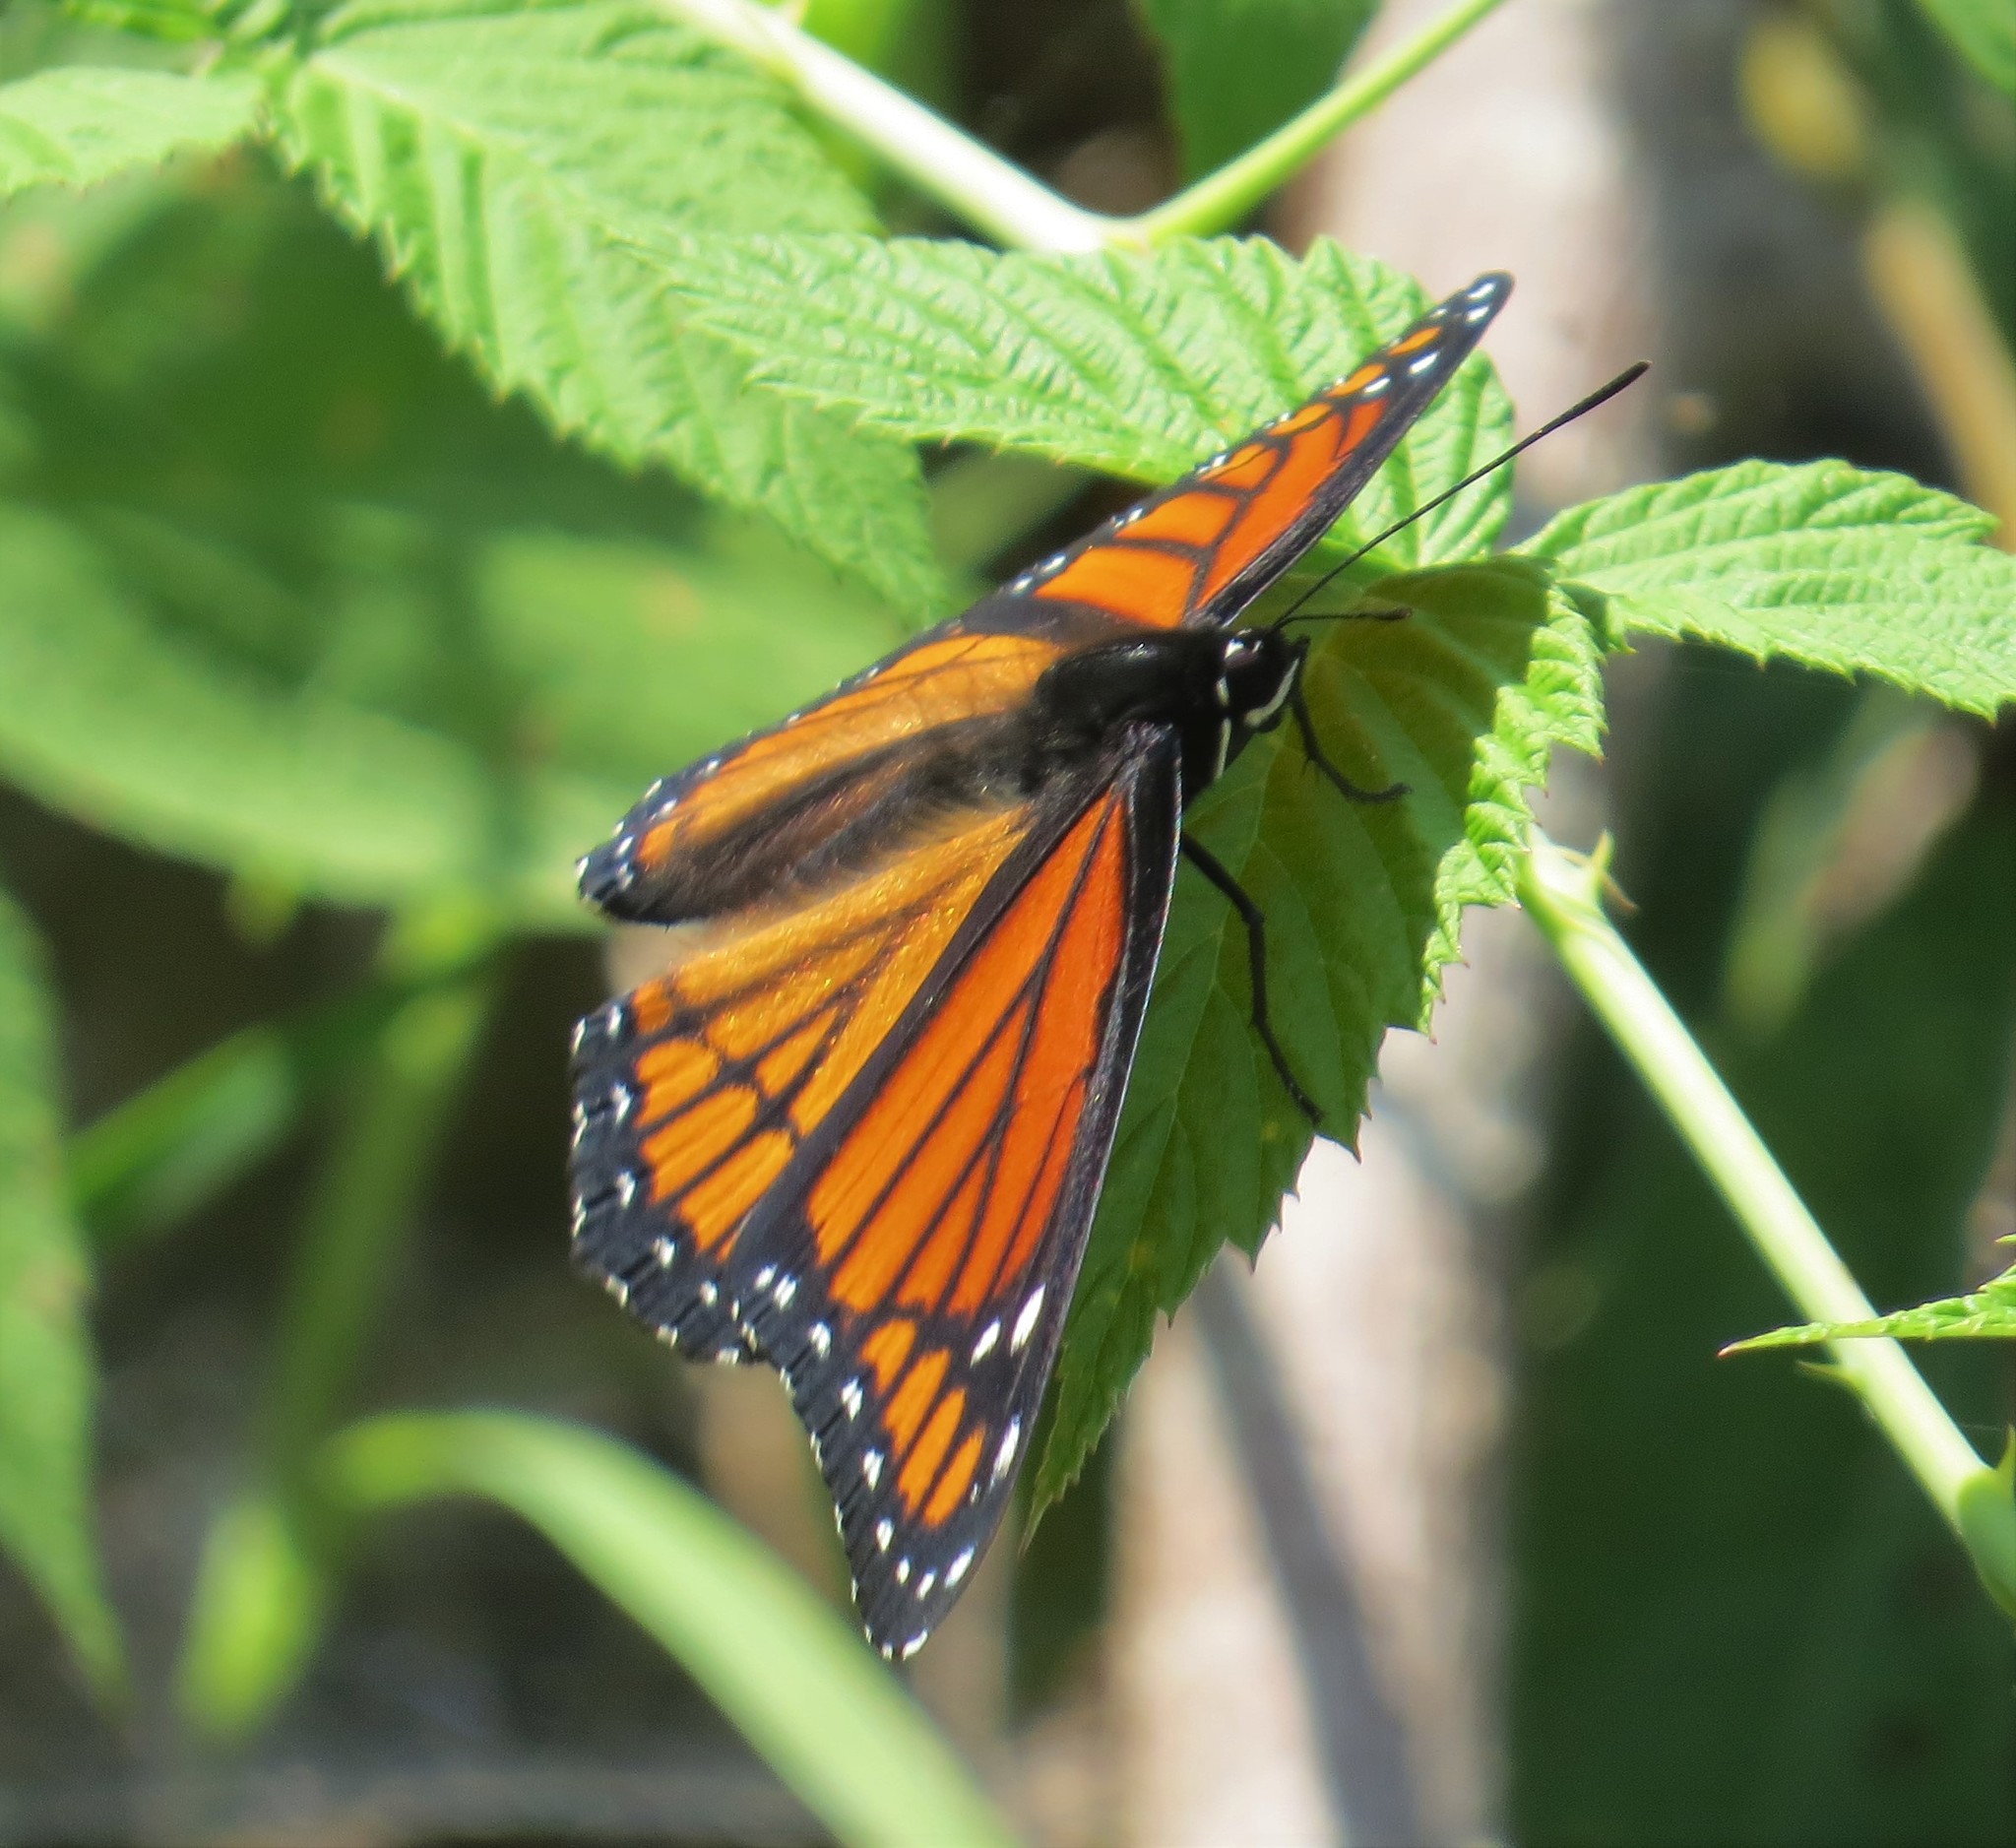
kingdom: Animalia
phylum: Arthropoda
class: Insecta
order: Lepidoptera
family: Nymphalidae
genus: Limenitis
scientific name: Limenitis archippus
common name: Viceroy
